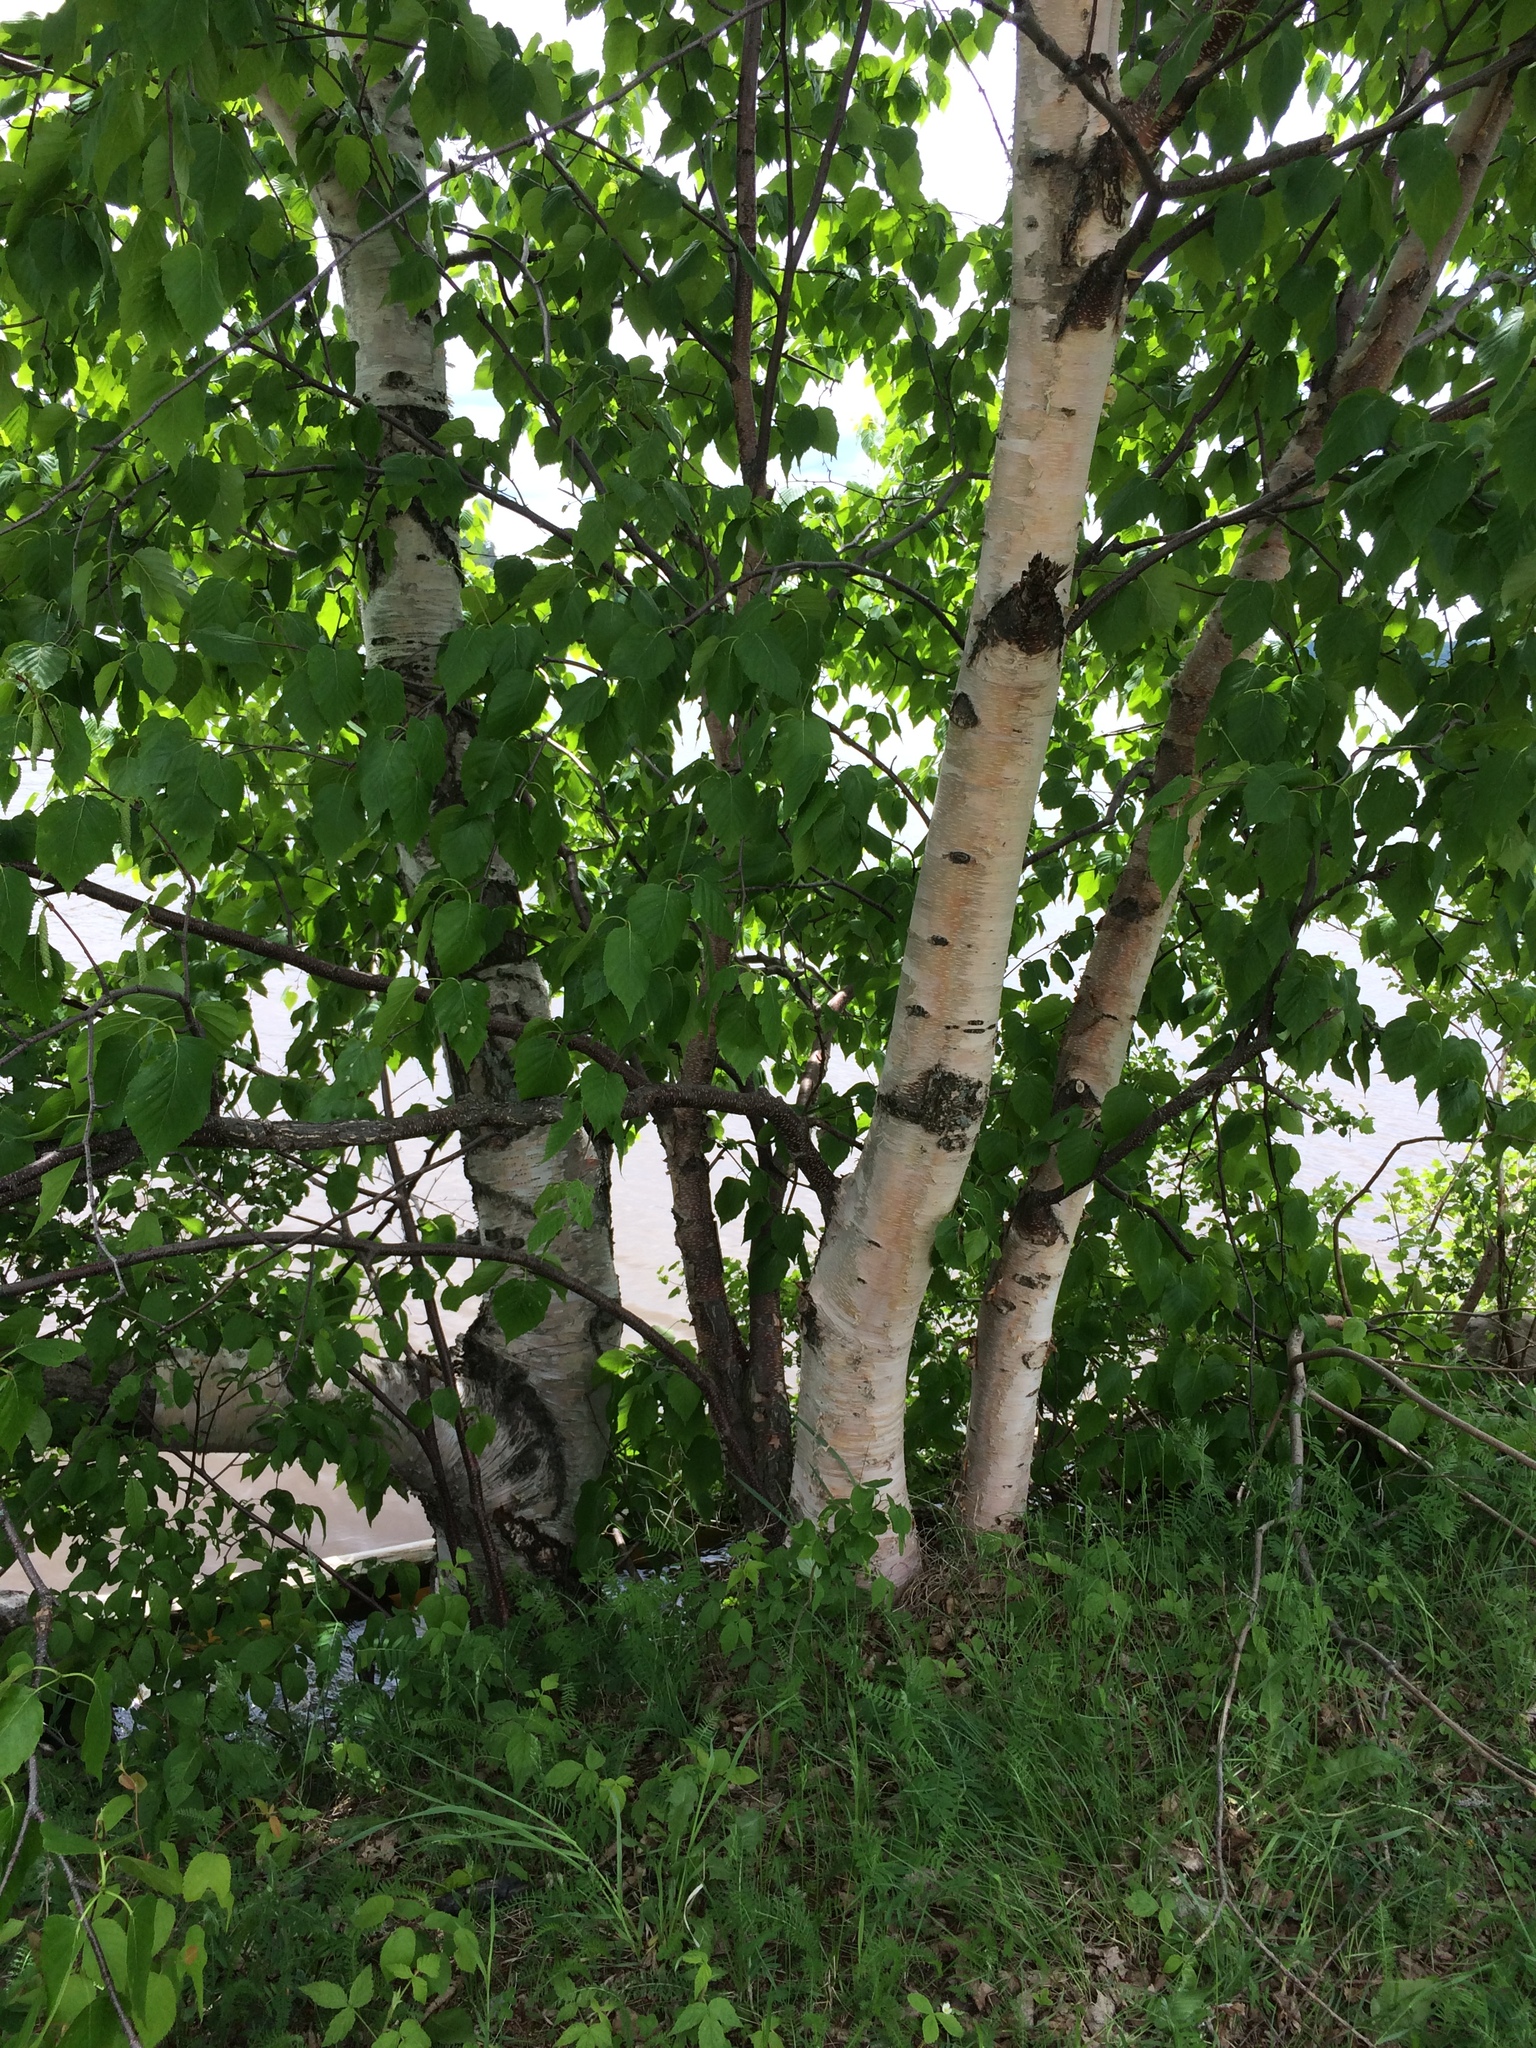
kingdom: Plantae
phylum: Tracheophyta
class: Magnoliopsida
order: Fagales
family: Betulaceae
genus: Betula
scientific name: Betula papyrifera
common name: Paper birch
